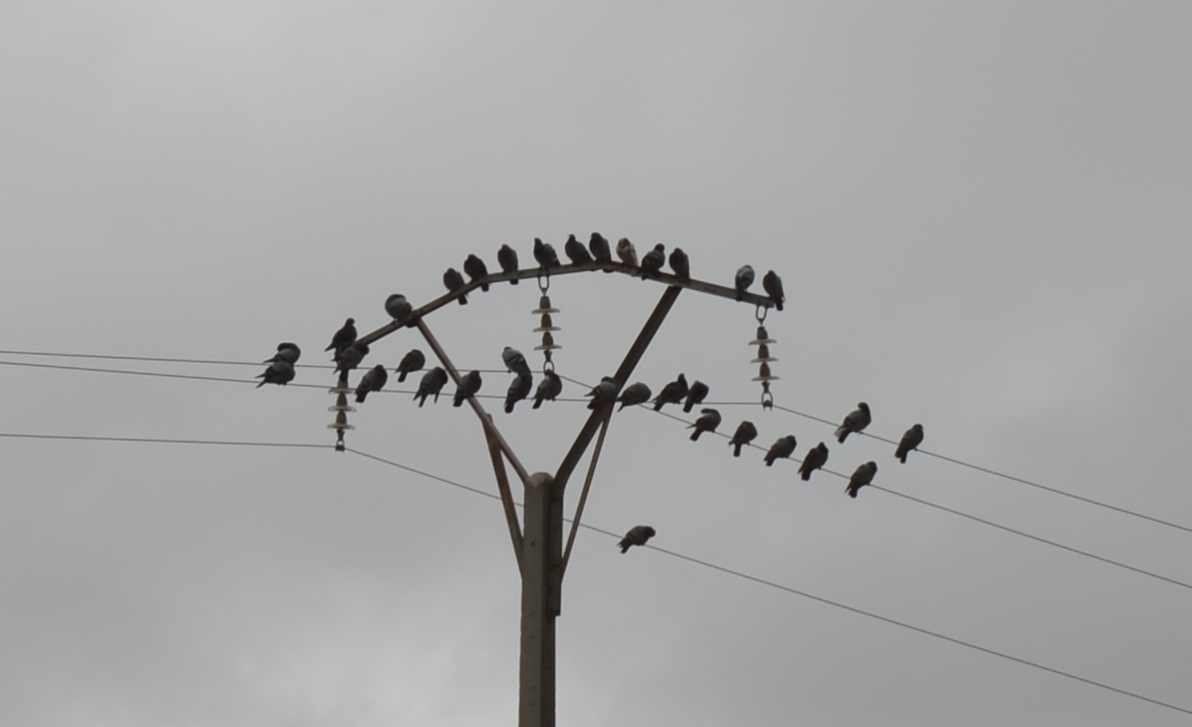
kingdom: Animalia
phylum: Chordata
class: Aves
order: Columbiformes
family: Columbidae
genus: Columba
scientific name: Columba livia
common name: Rock pigeon
